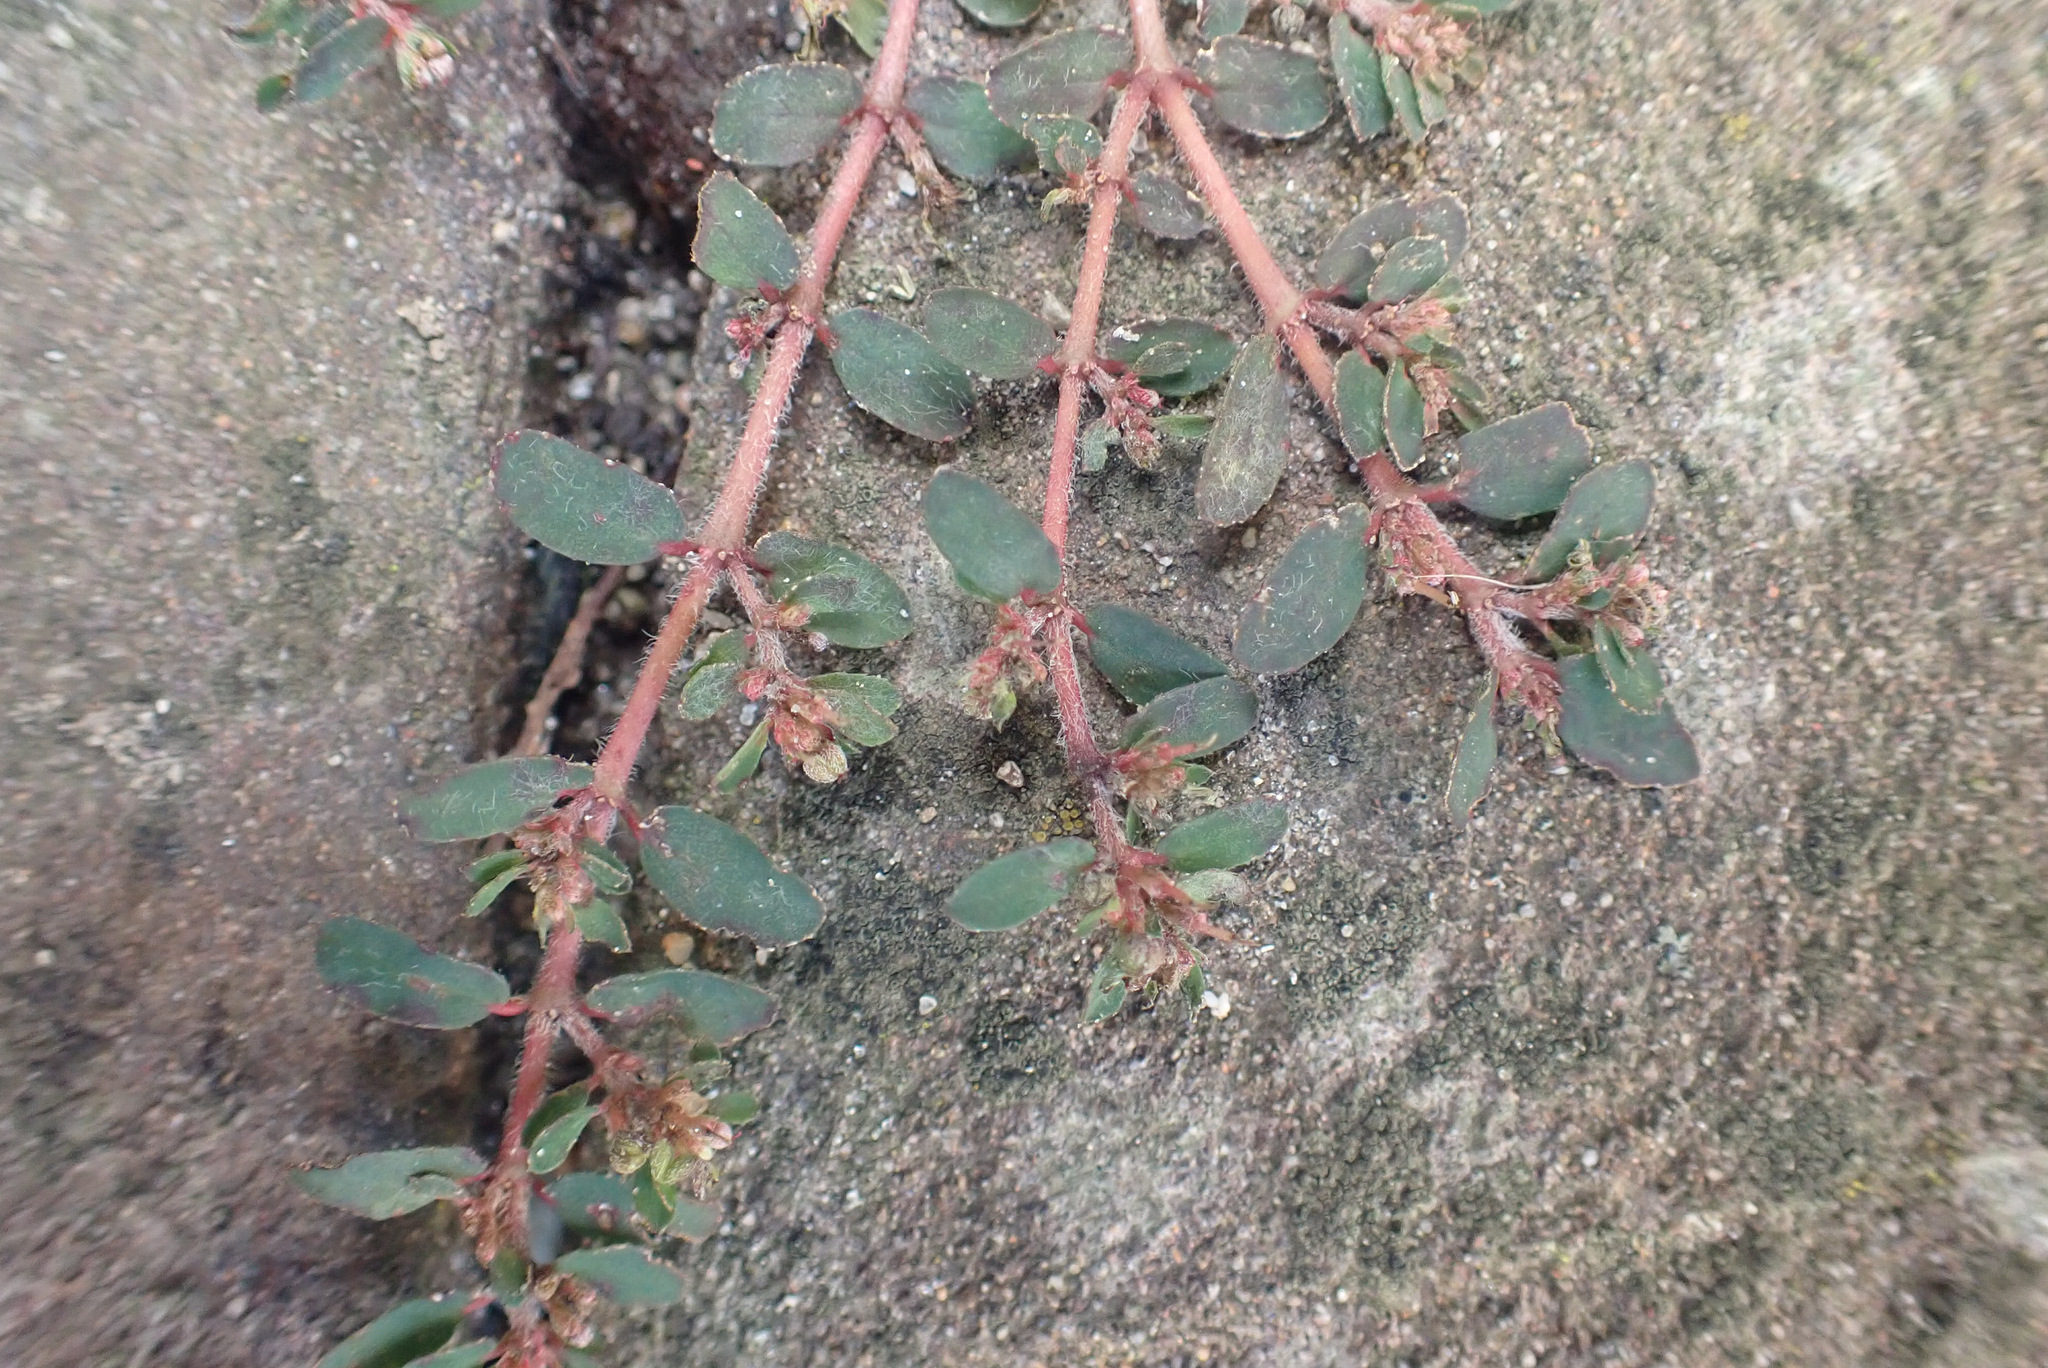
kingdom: Plantae
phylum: Tracheophyta
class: Magnoliopsida
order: Malpighiales
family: Euphorbiaceae
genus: Euphorbia
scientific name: Euphorbia maculata
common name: Spotted spurge
